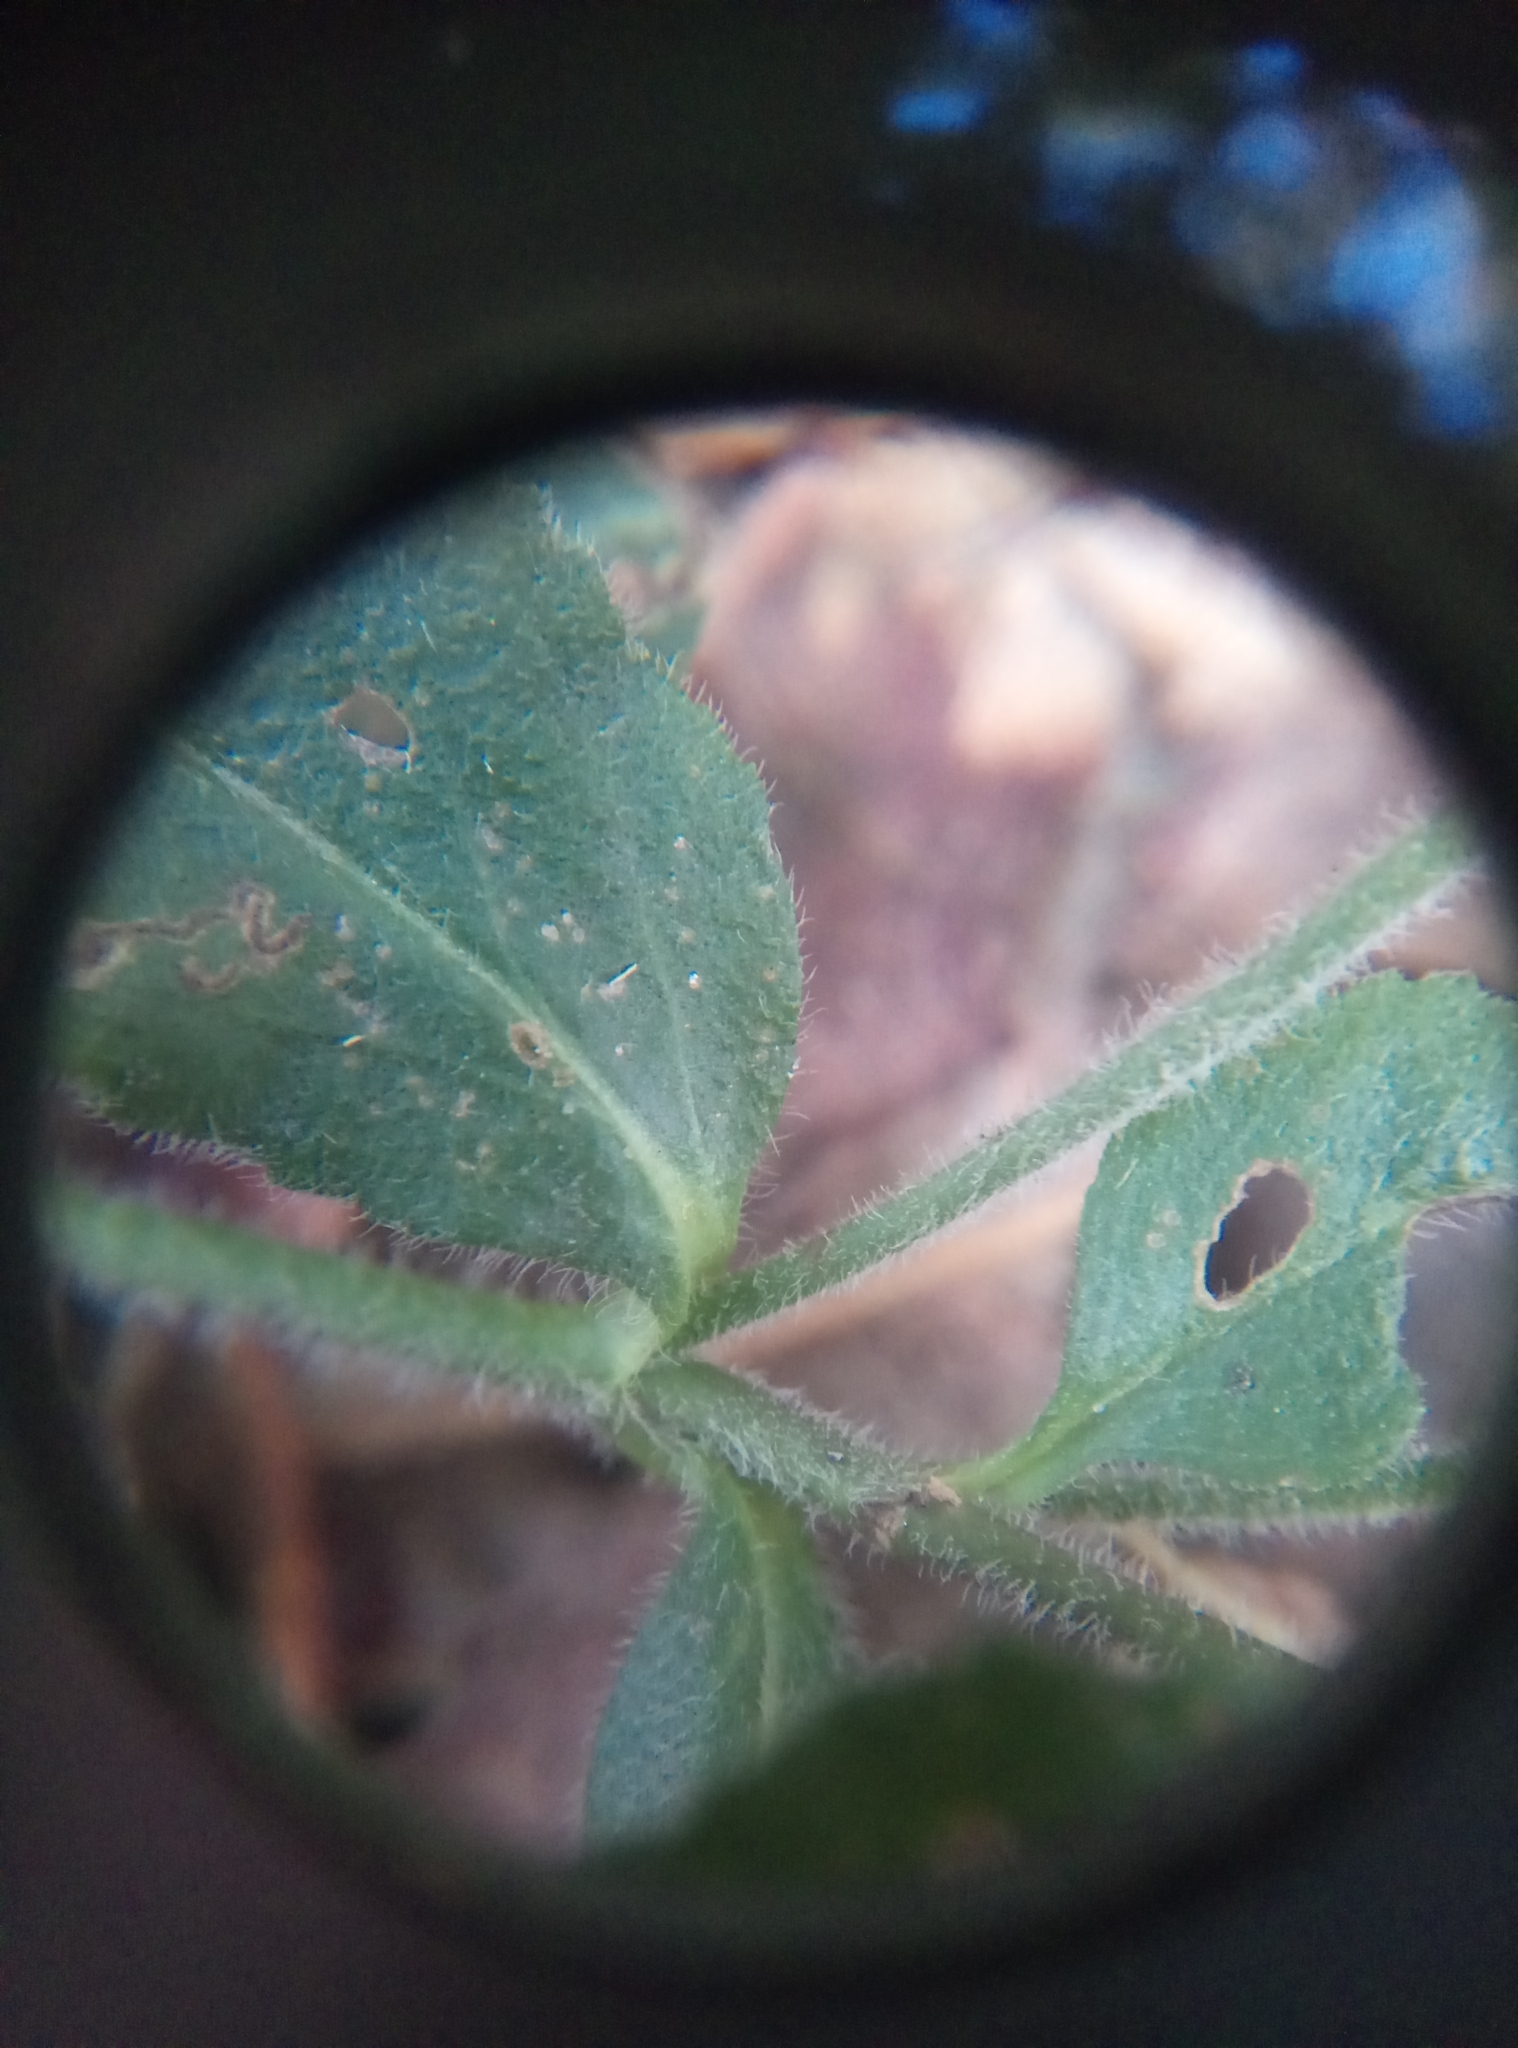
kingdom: Plantae
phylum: Tracheophyta
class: Magnoliopsida
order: Lamiales
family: Plantaginaceae
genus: Veronica
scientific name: Veronica officinalis
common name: Common speedwell
